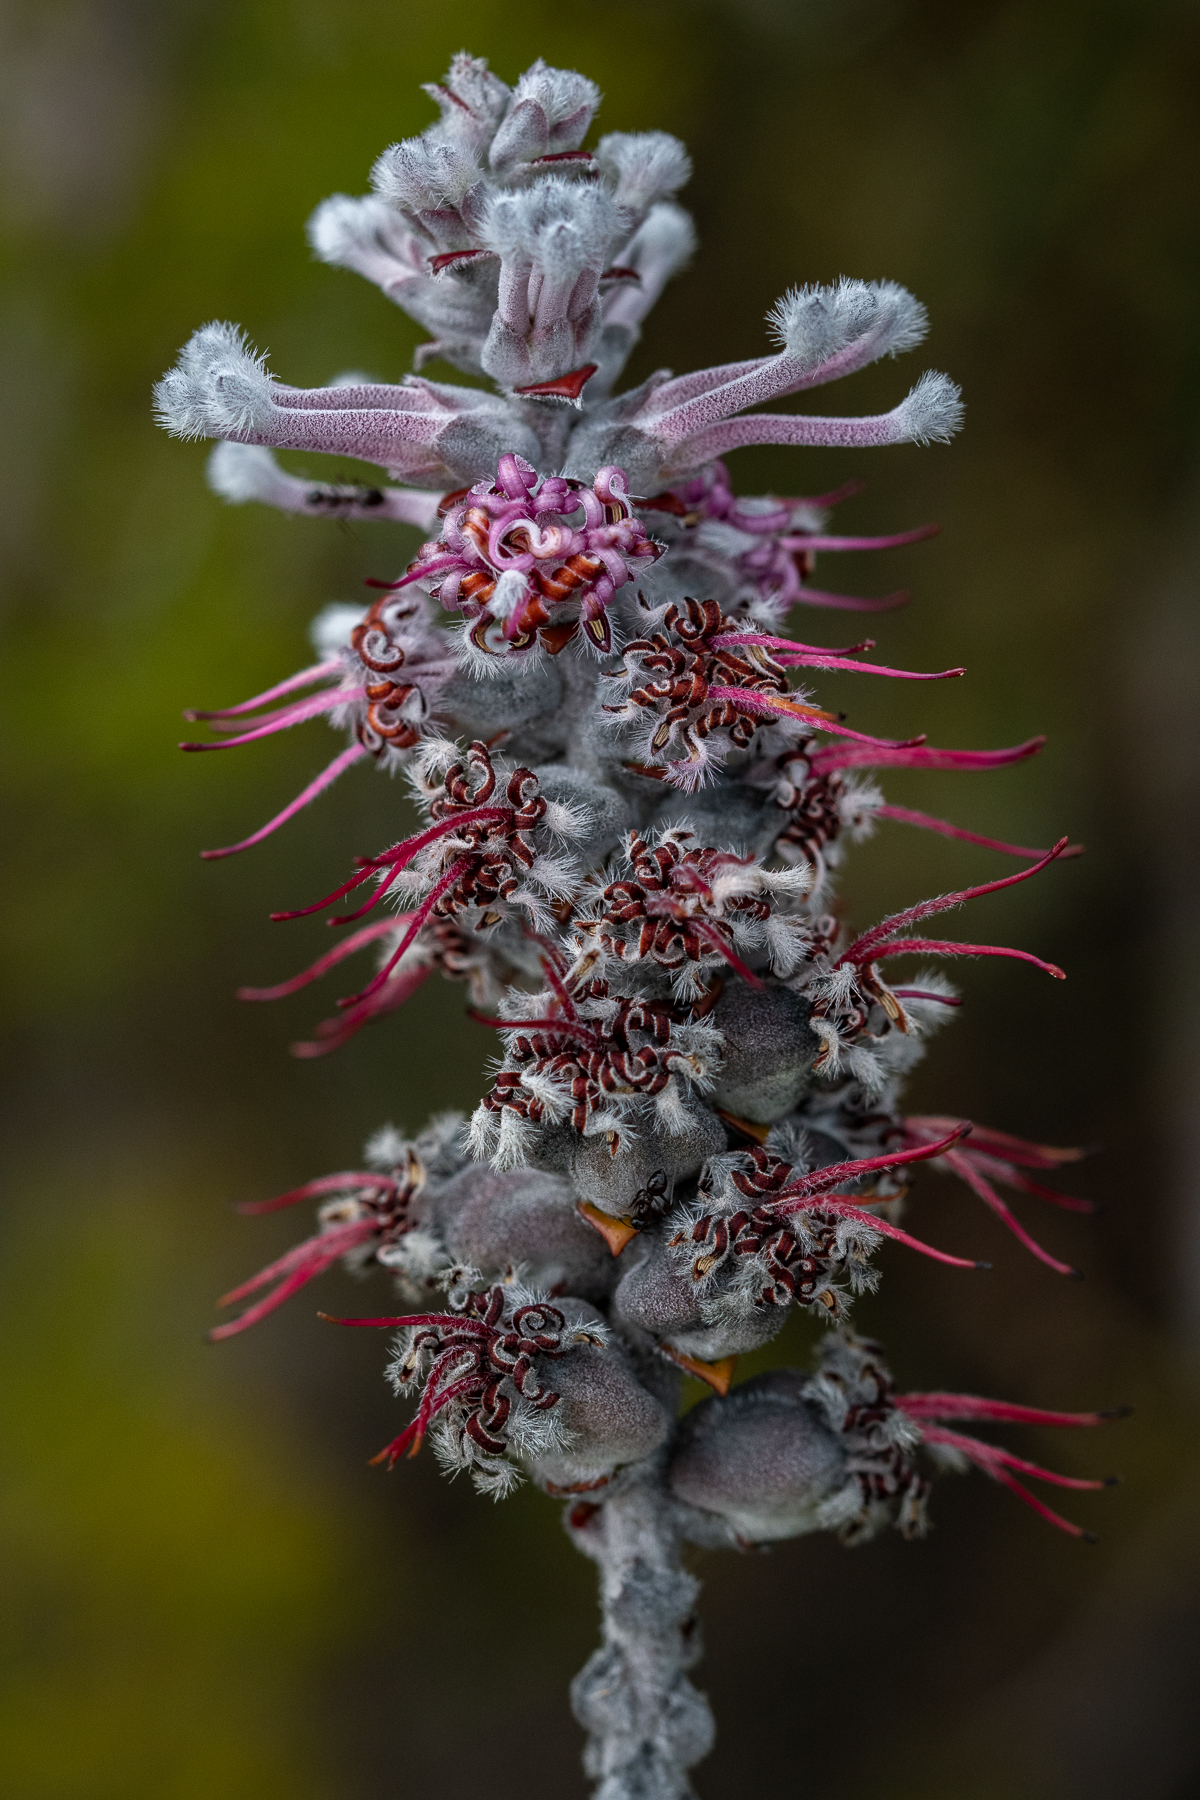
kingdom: Plantae
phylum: Tracheophyta
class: Magnoliopsida
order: Proteales
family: Proteaceae
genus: Paranomus
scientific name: Paranomus bolusii
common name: Overberg sceptre
